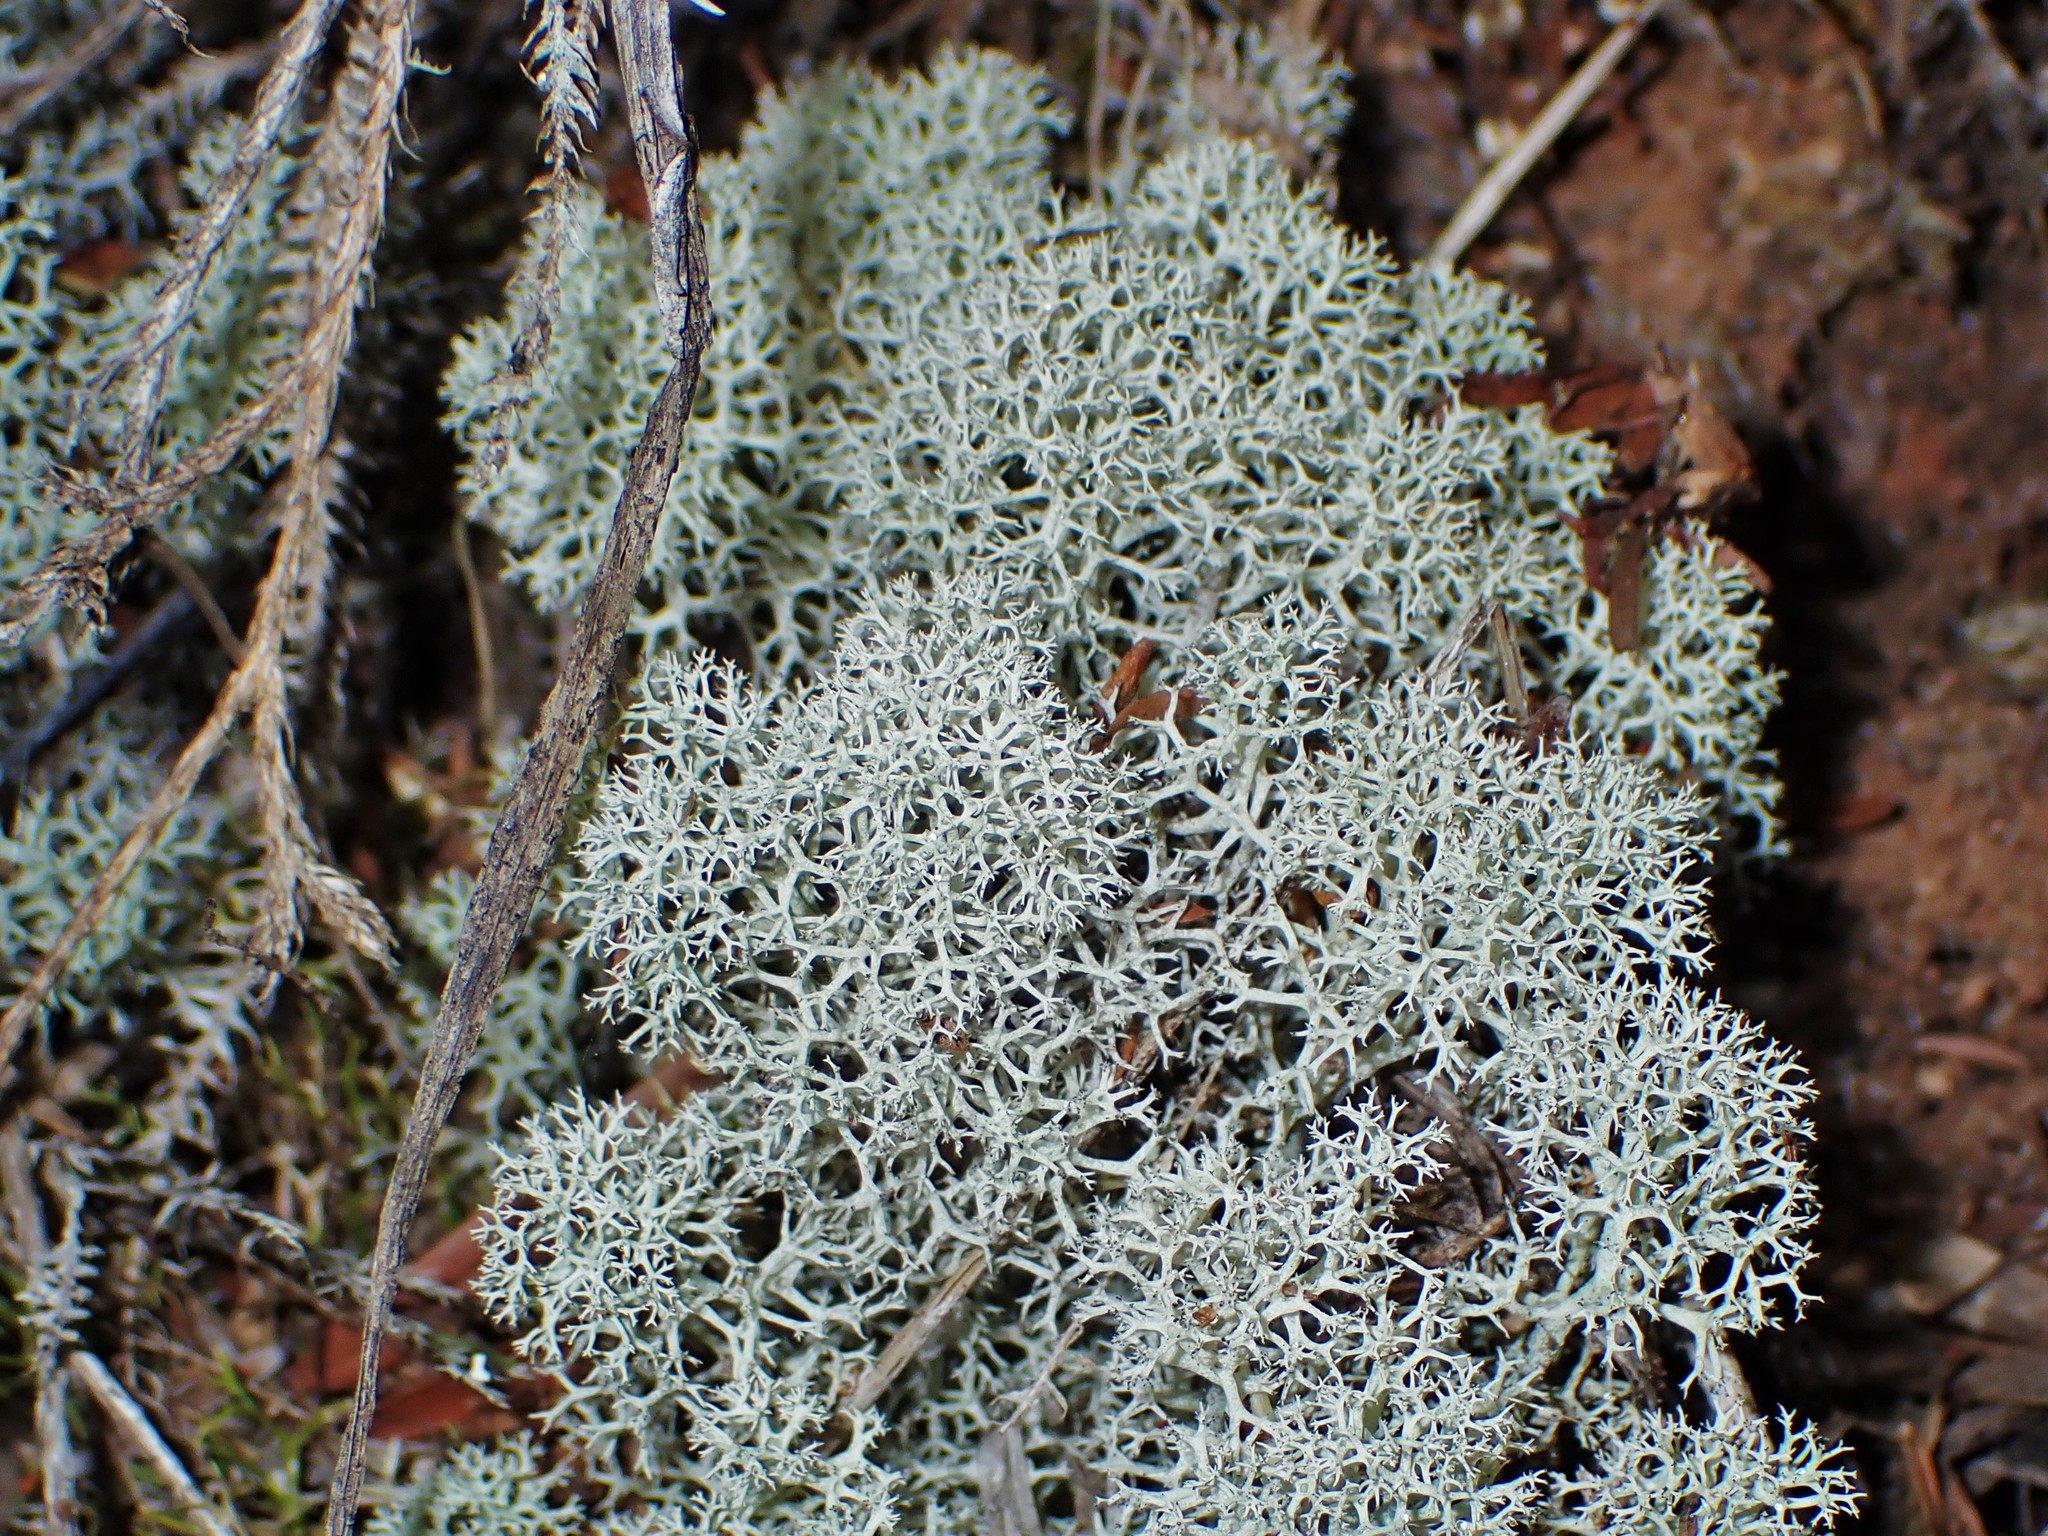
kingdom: Fungi
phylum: Ascomycota
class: Lecanoromycetes
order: Lecanorales
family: Cladoniaceae
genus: Cladonia
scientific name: Cladonia confusa
